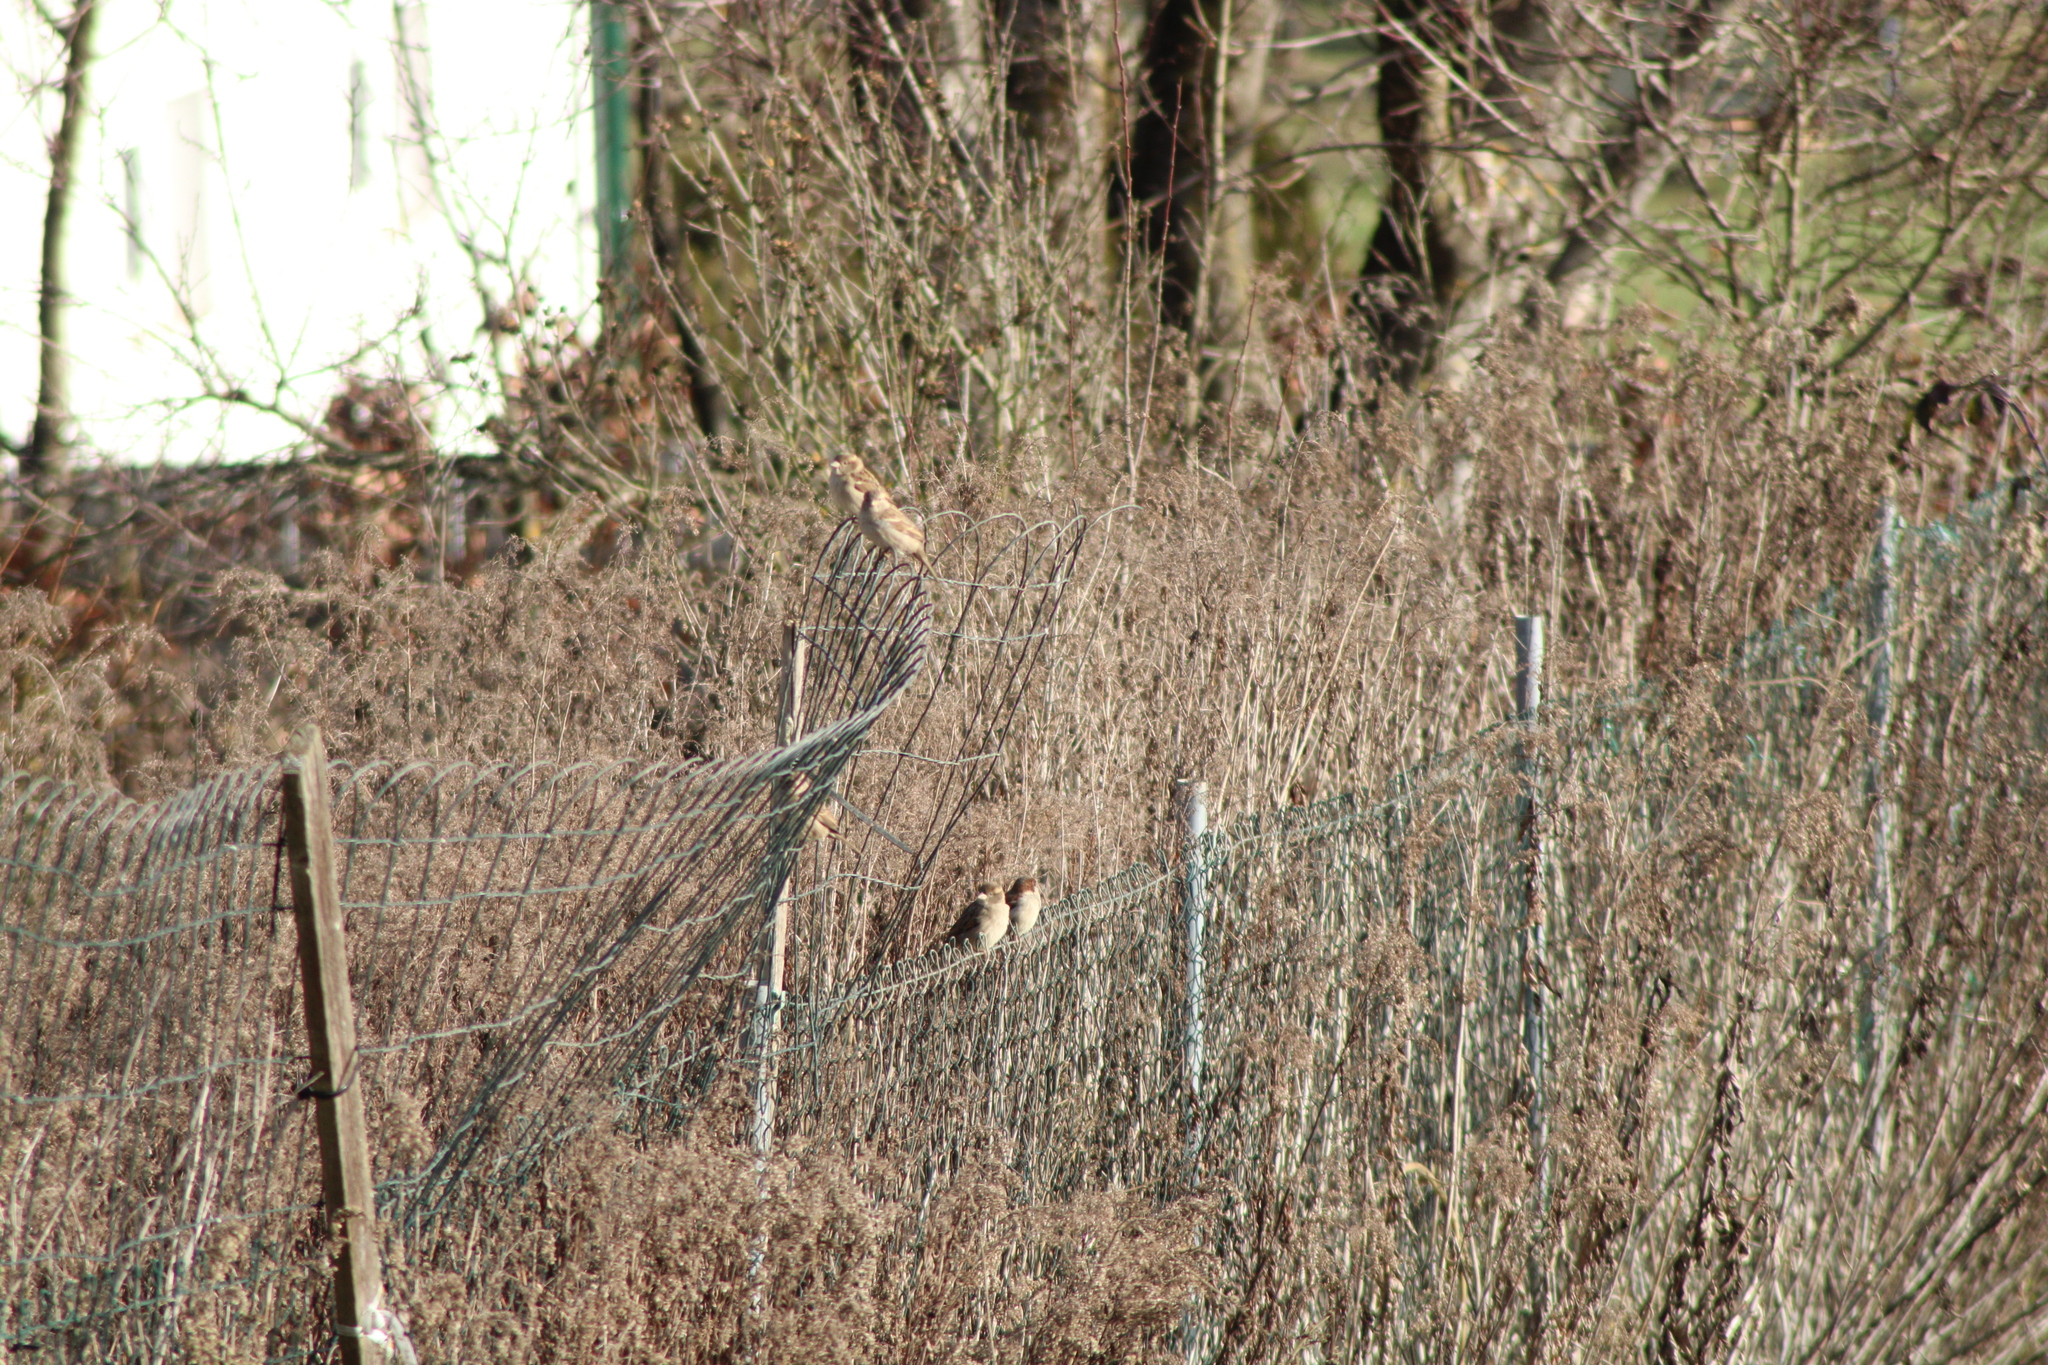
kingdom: Animalia
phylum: Chordata
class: Aves
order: Passeriformes
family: Passeridae
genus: Passer
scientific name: Passer domesticus
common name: House sparrow
